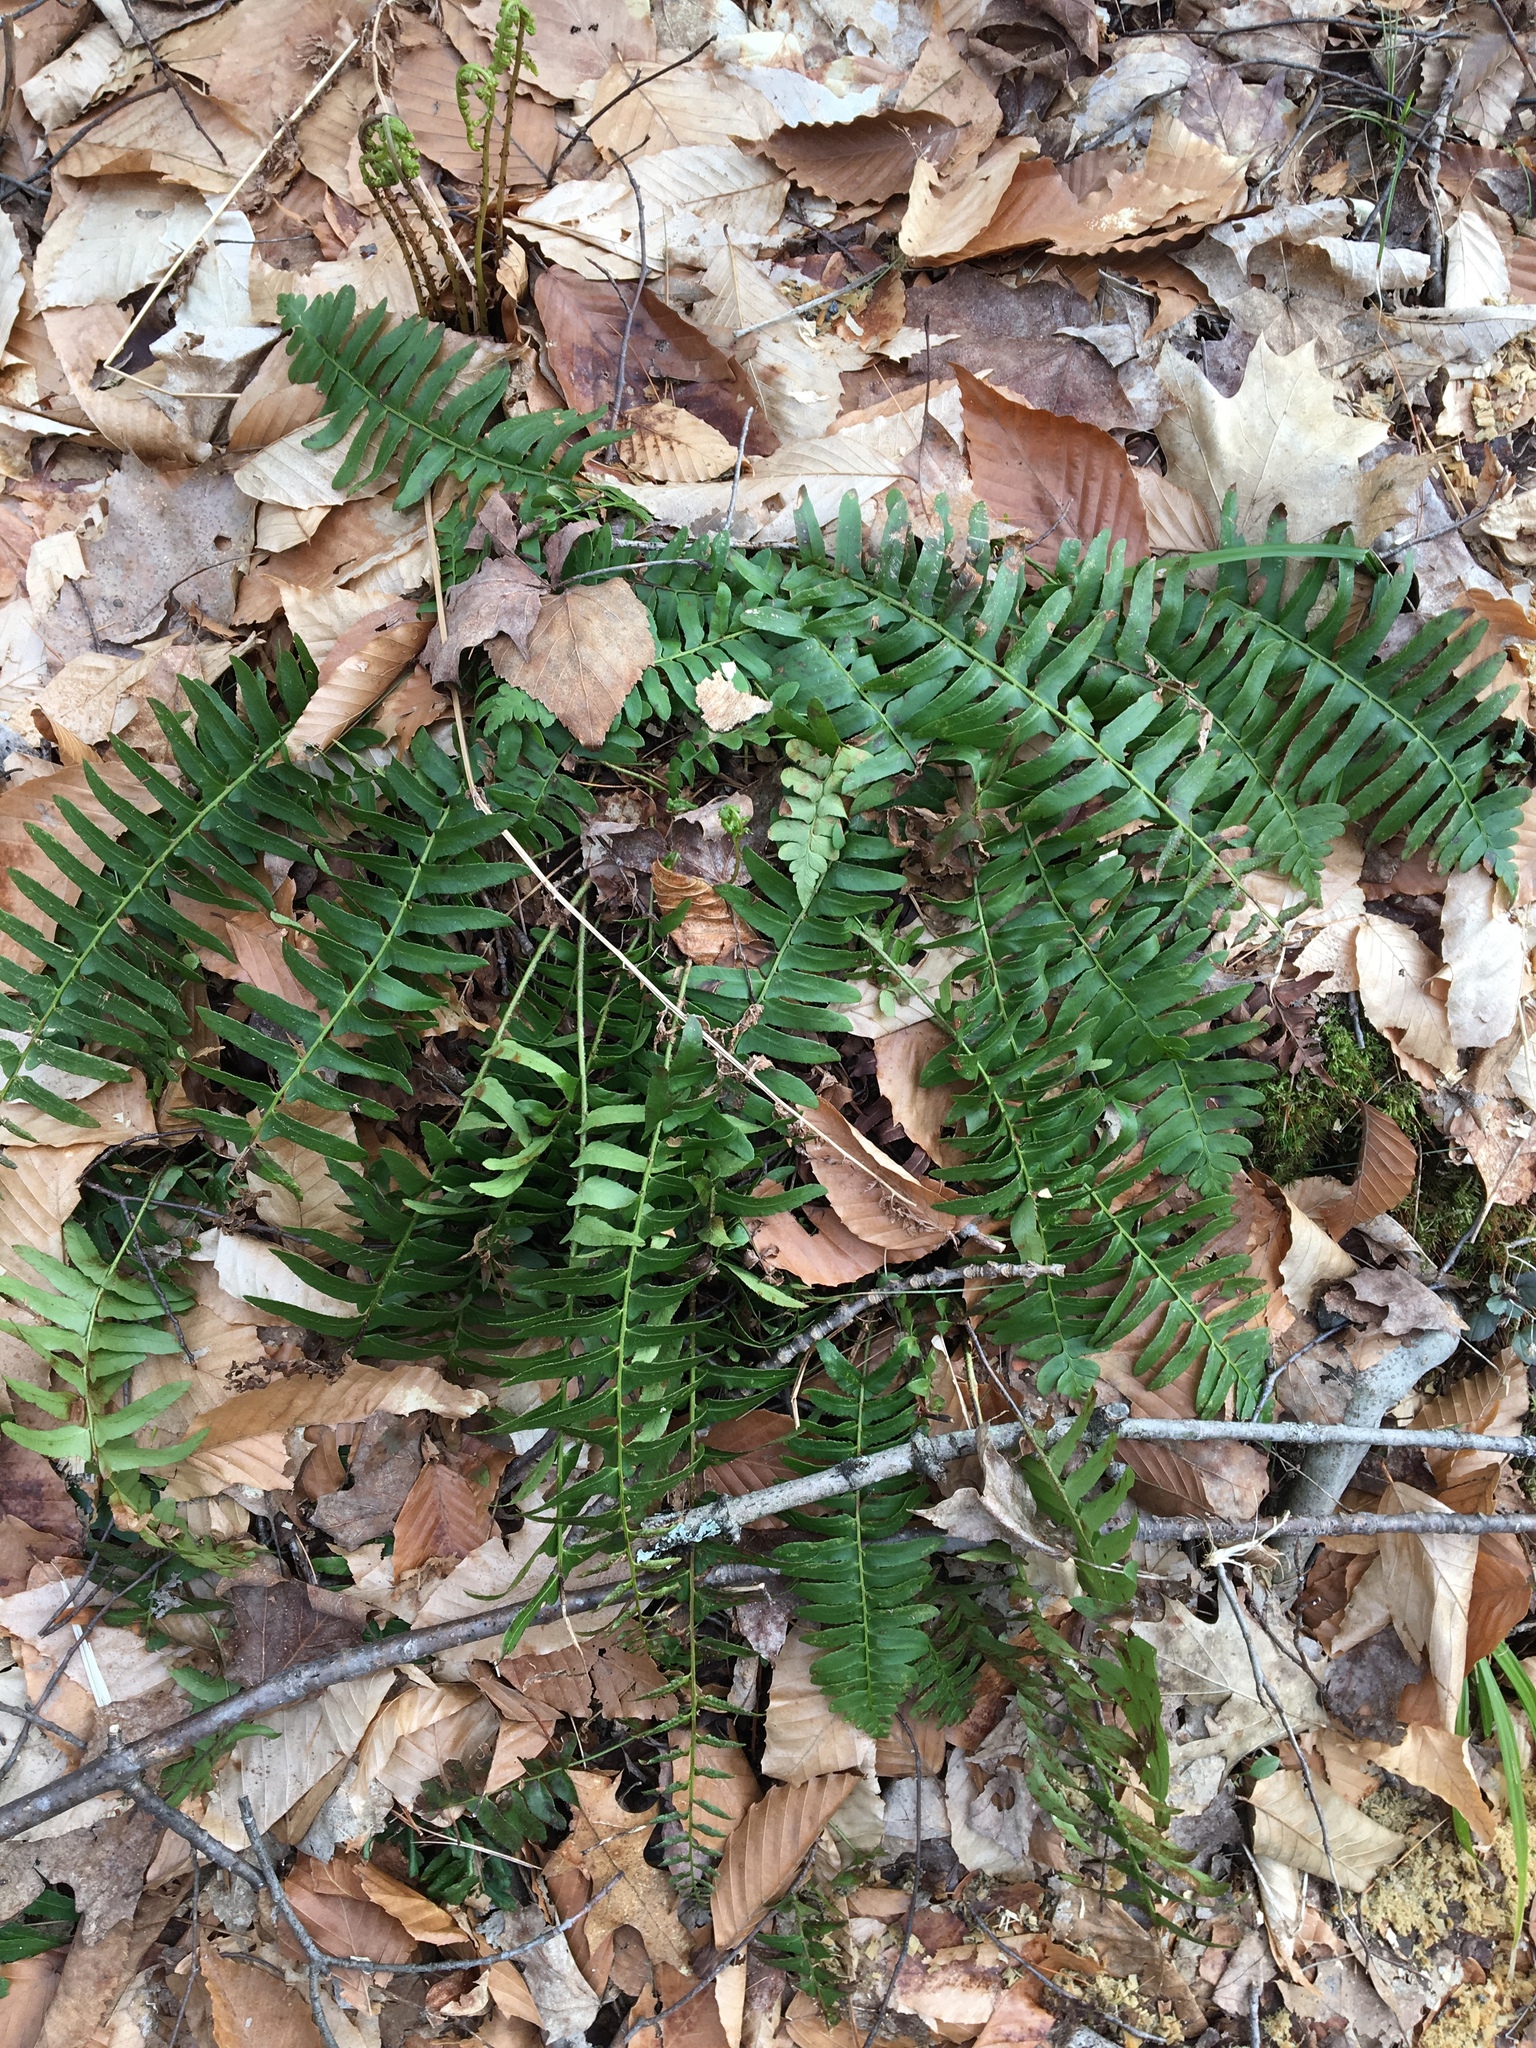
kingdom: Plantae
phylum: Tracheophyta
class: Polypodiopsida
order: Polypodiales
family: Dryopteridaceae
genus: Polystichum
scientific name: Polystichum acrostichoides
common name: Christmas fern
